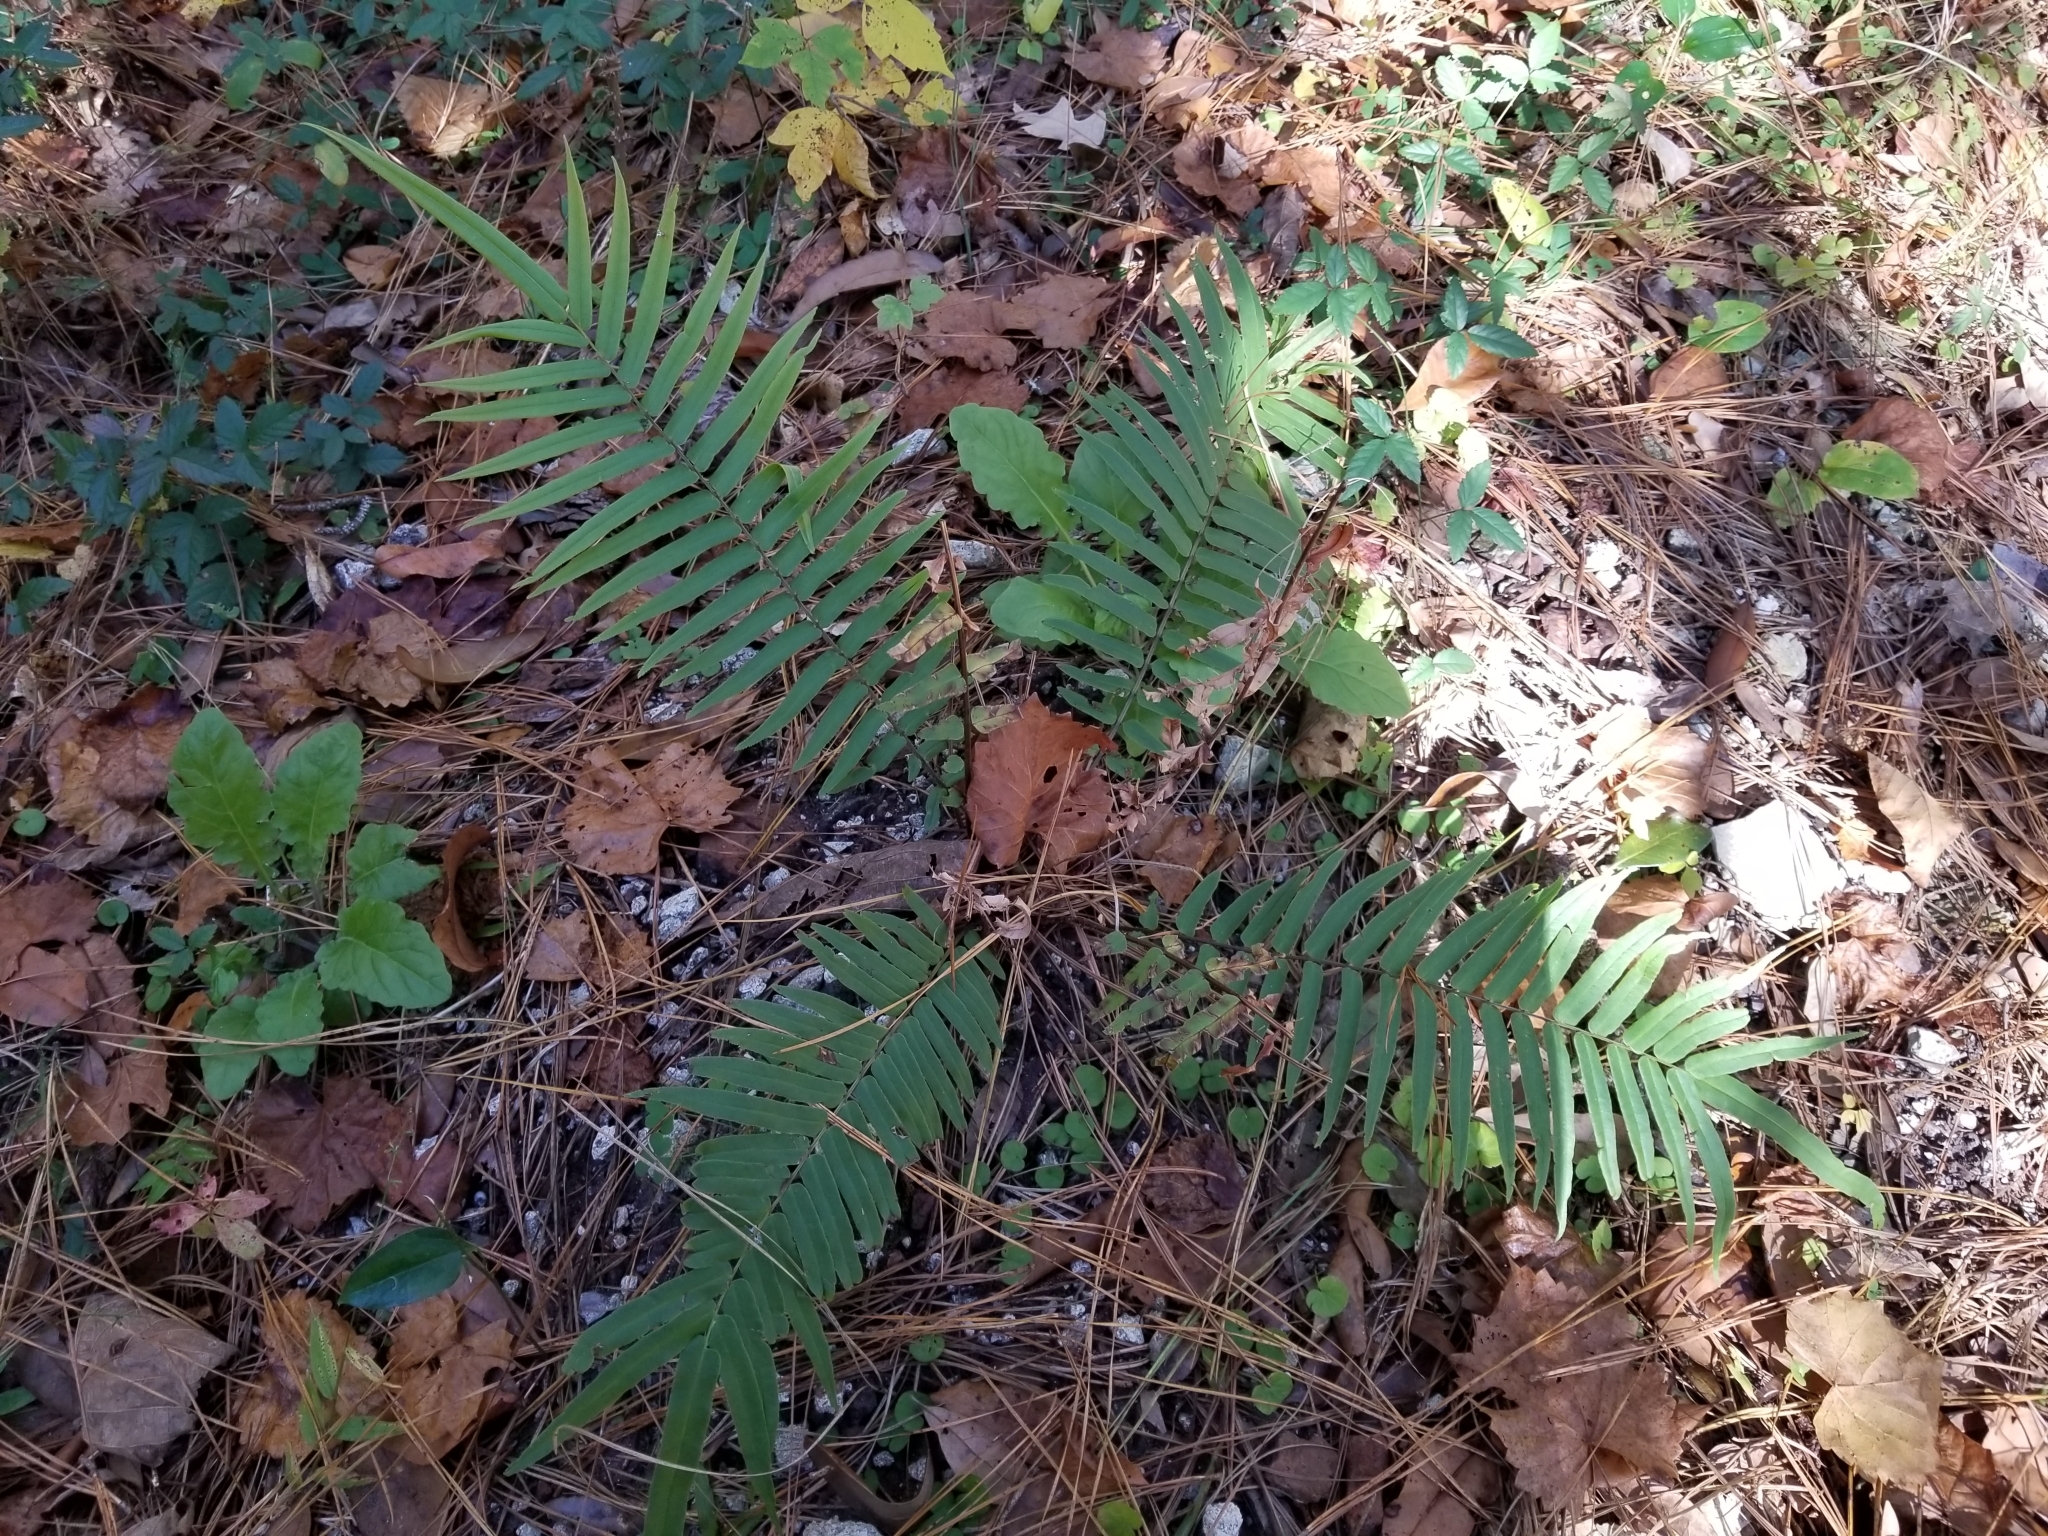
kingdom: Plantae
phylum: Tracheophyta
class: Polypodiopsida
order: Polypodiales
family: Pteridaceae
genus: Pteris
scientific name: Pteris vittata
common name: Ladder brake
